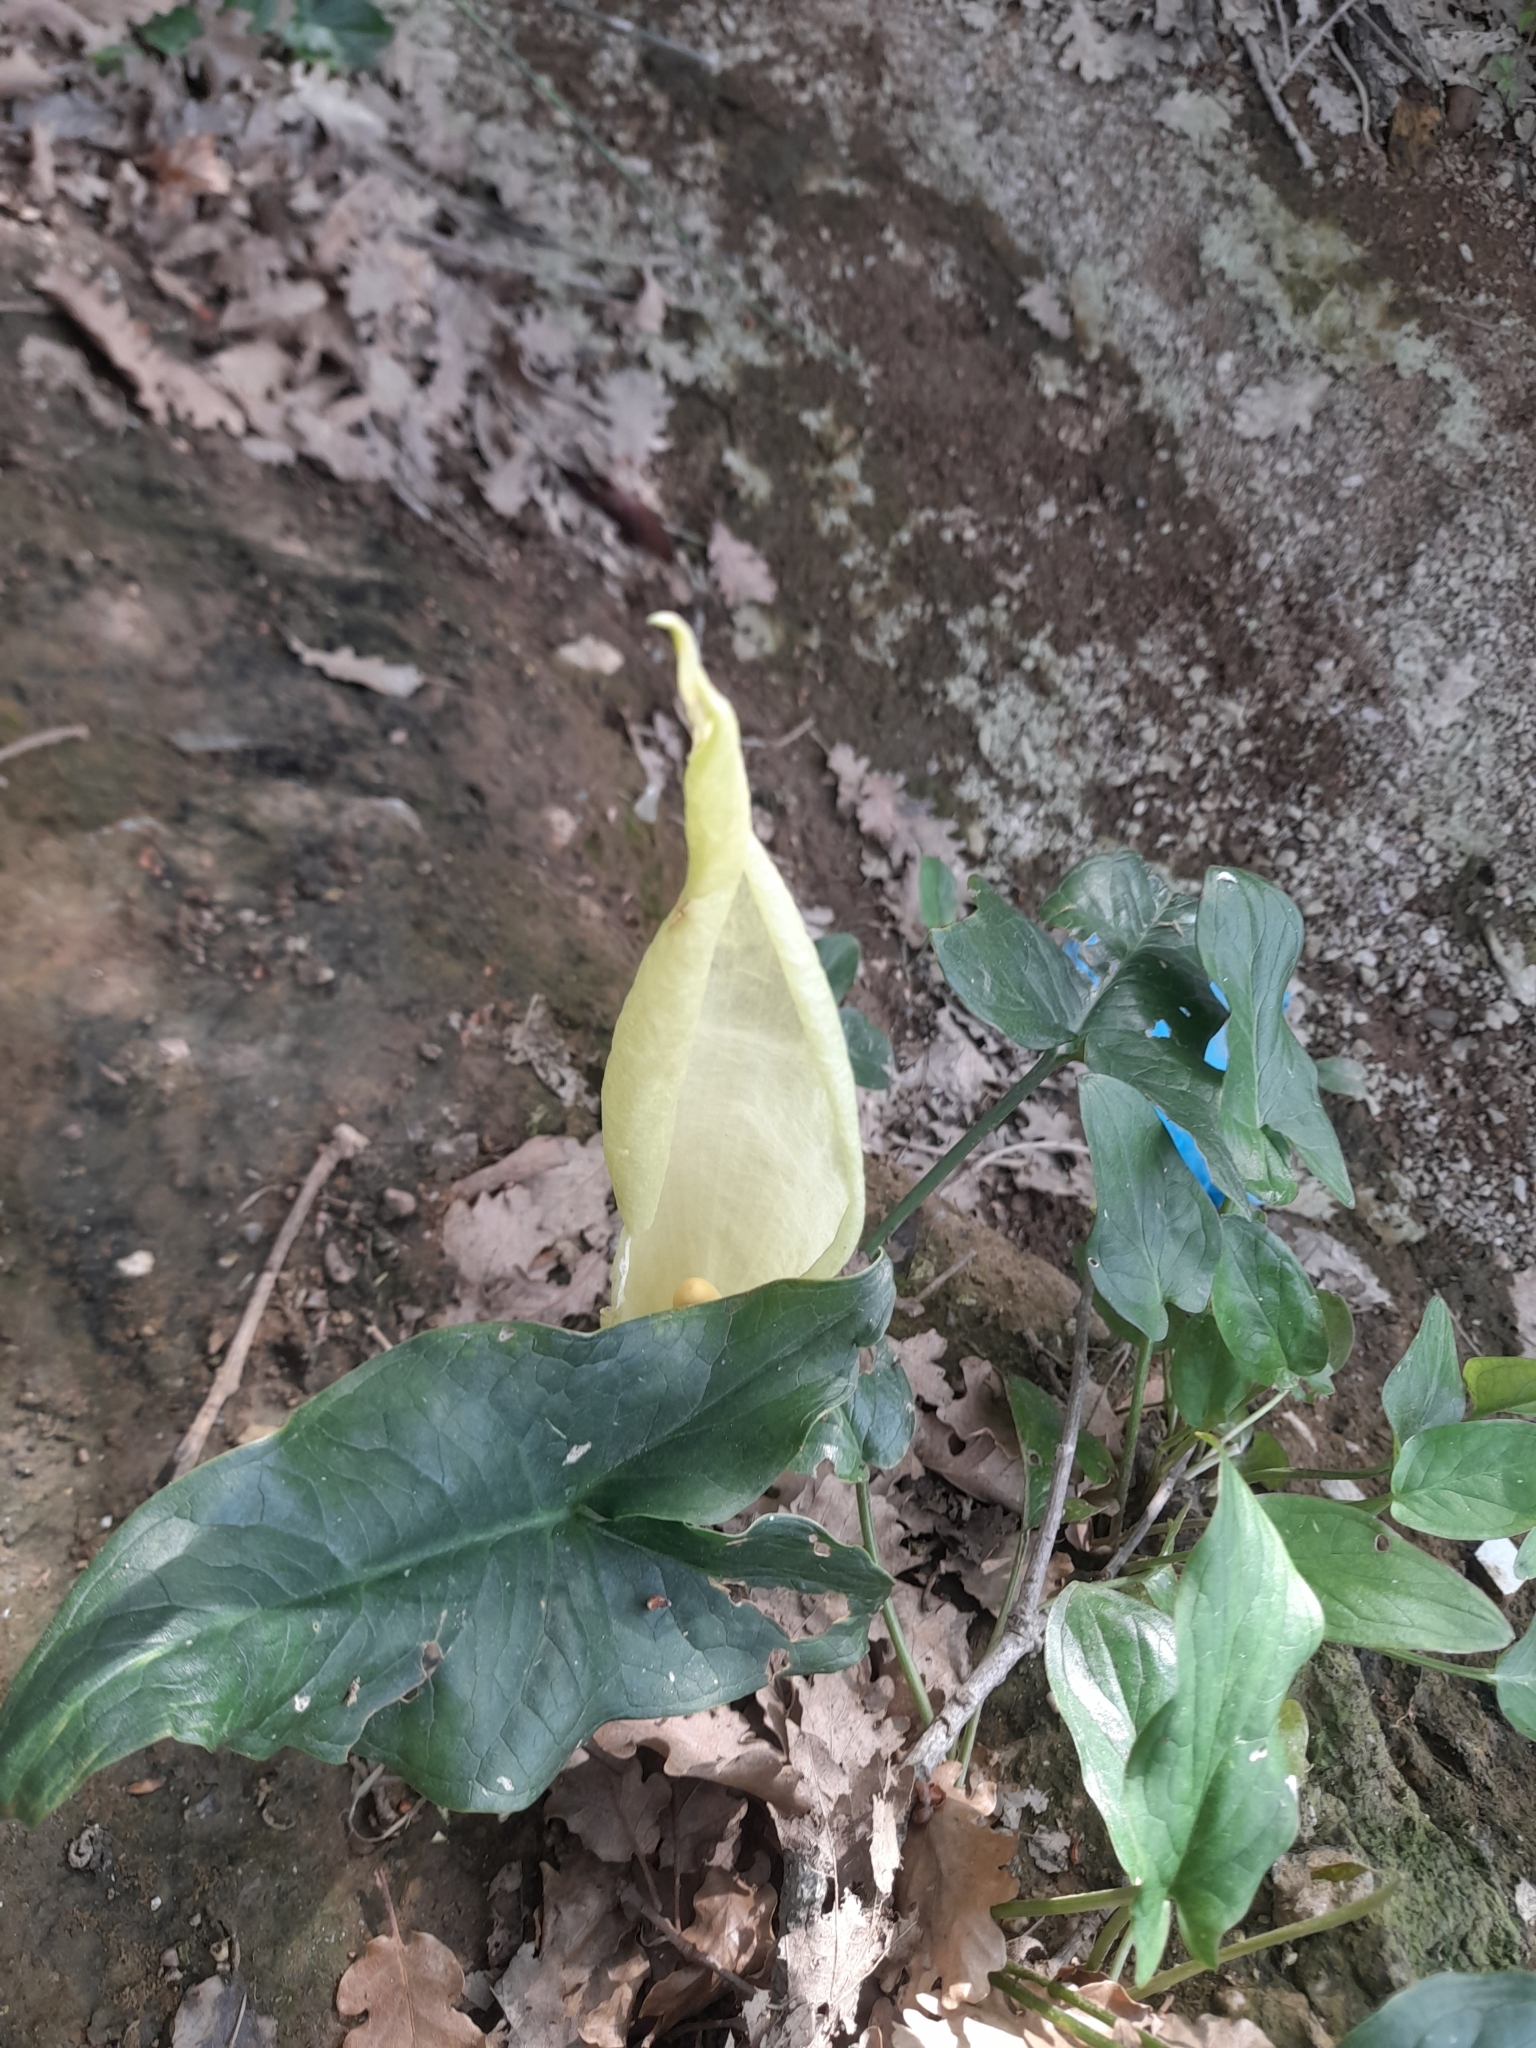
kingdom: Plantae
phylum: Tracheophyta
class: Liliopsida
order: Alismatales
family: Araceae
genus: Arum
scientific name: Arum italicum
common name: Italian lords-and-ladies
